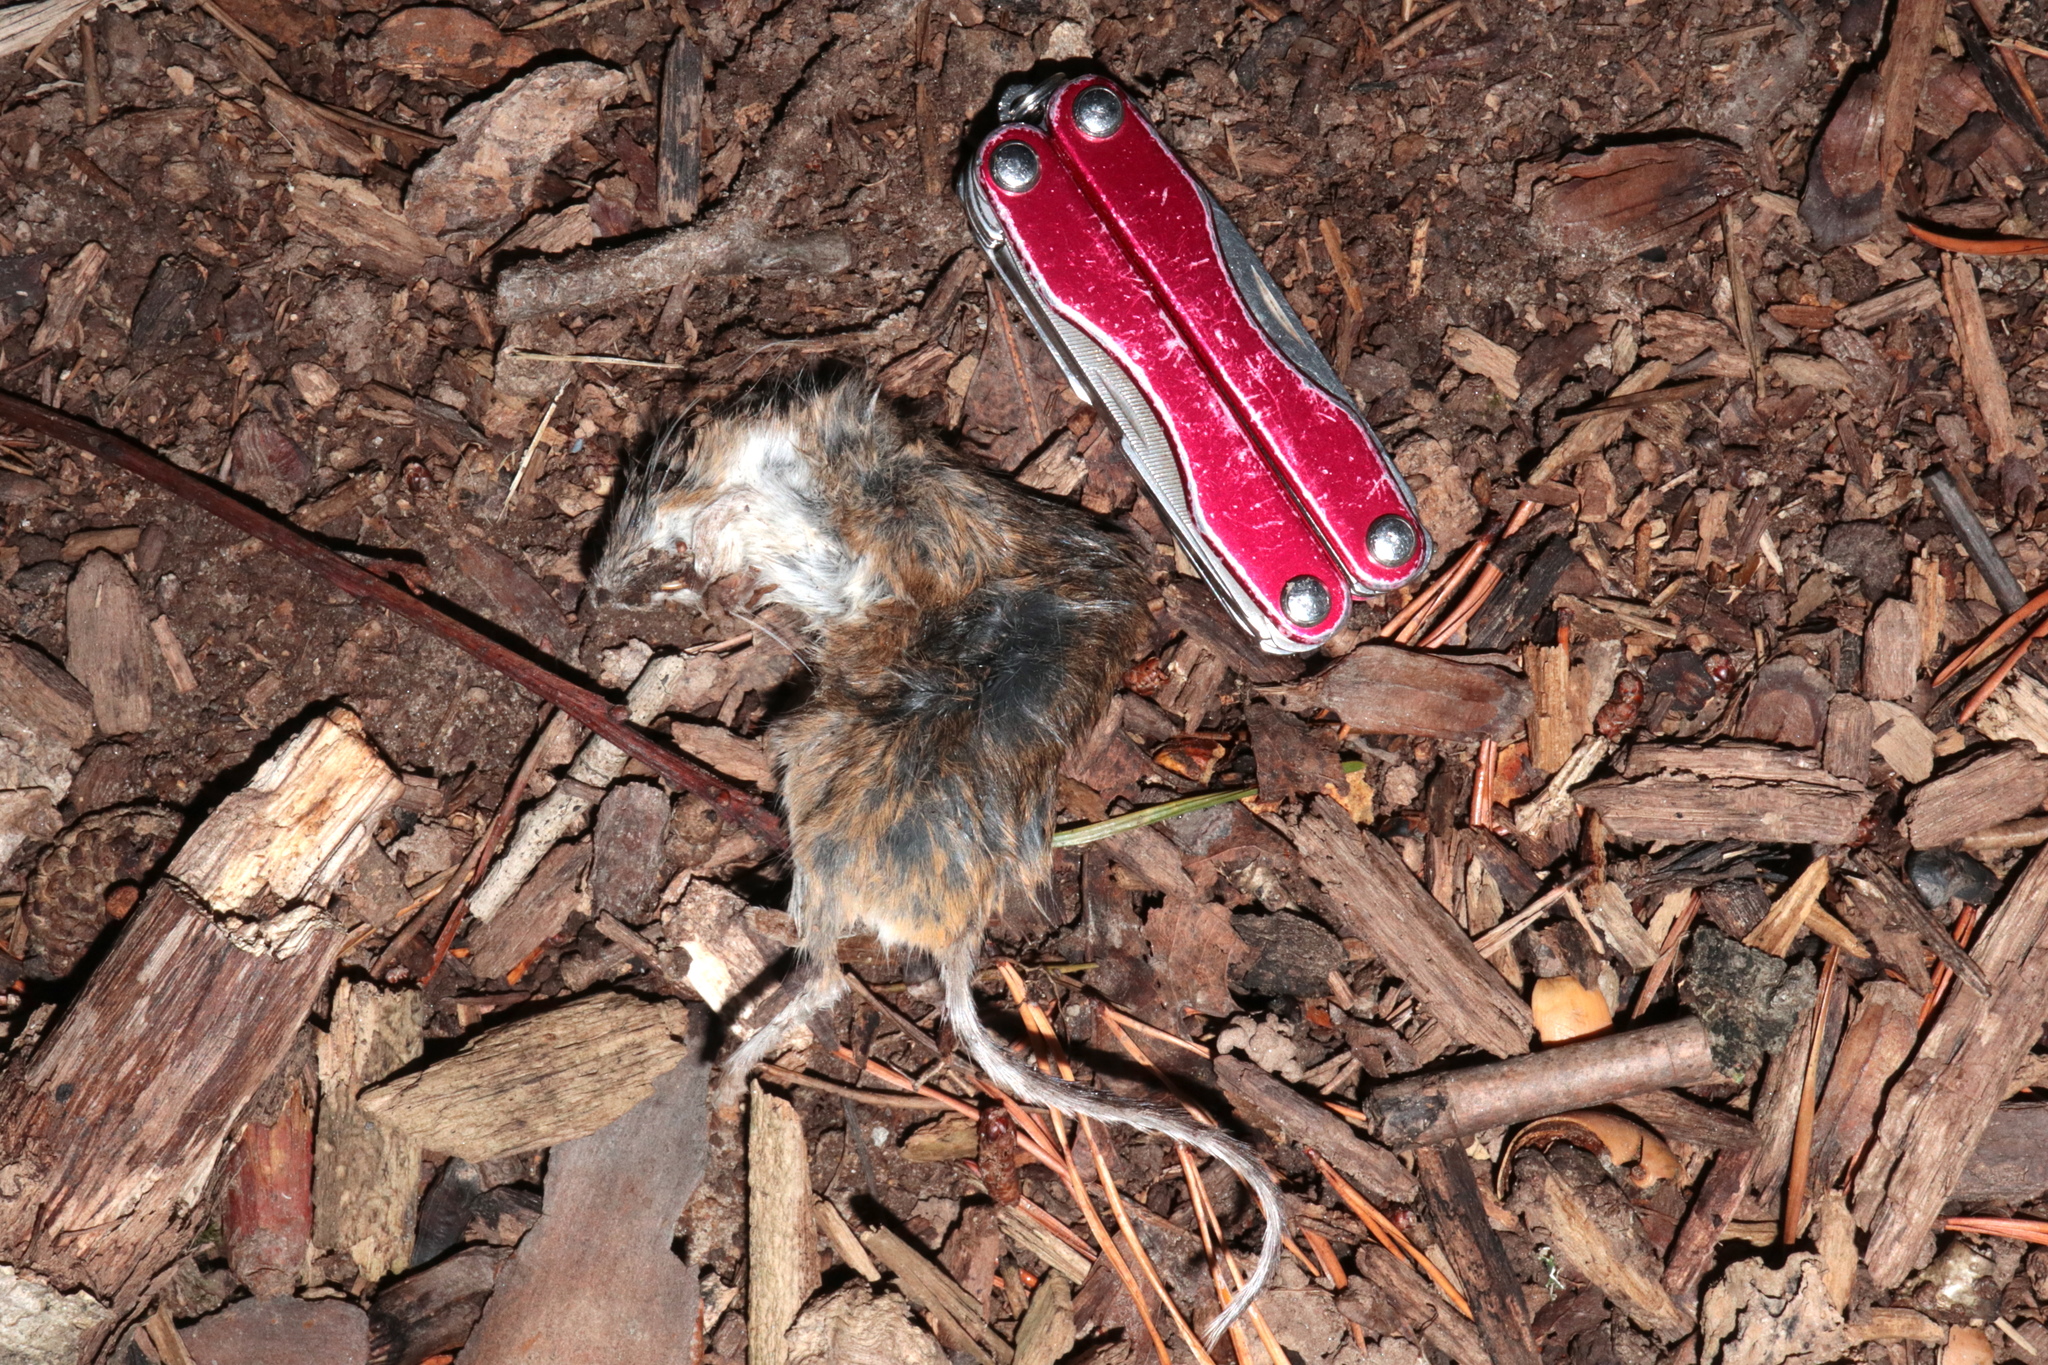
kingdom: Animalia
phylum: Chordata
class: Mammalia
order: Rodentia
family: Cricetidae
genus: Peromyscus
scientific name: Peromyscus leucopus
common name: White-footed deermouse
